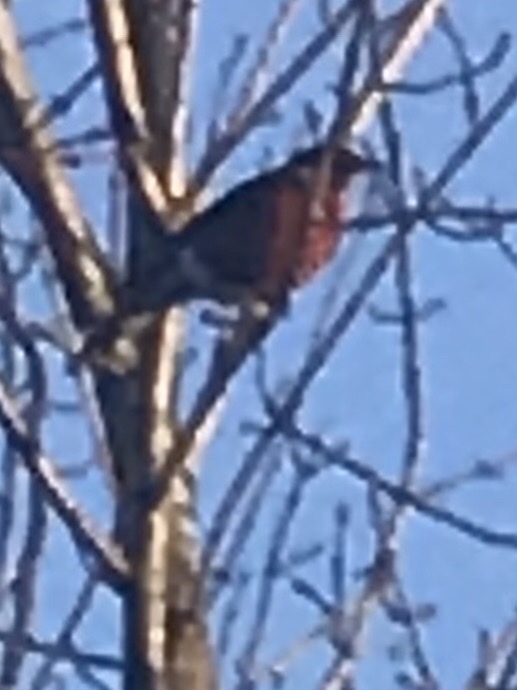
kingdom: Animalia
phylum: Chordata
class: Aves
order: Passeriformes
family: Turdidae
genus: Turdus
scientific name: Turdus migratorius
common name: American robin
